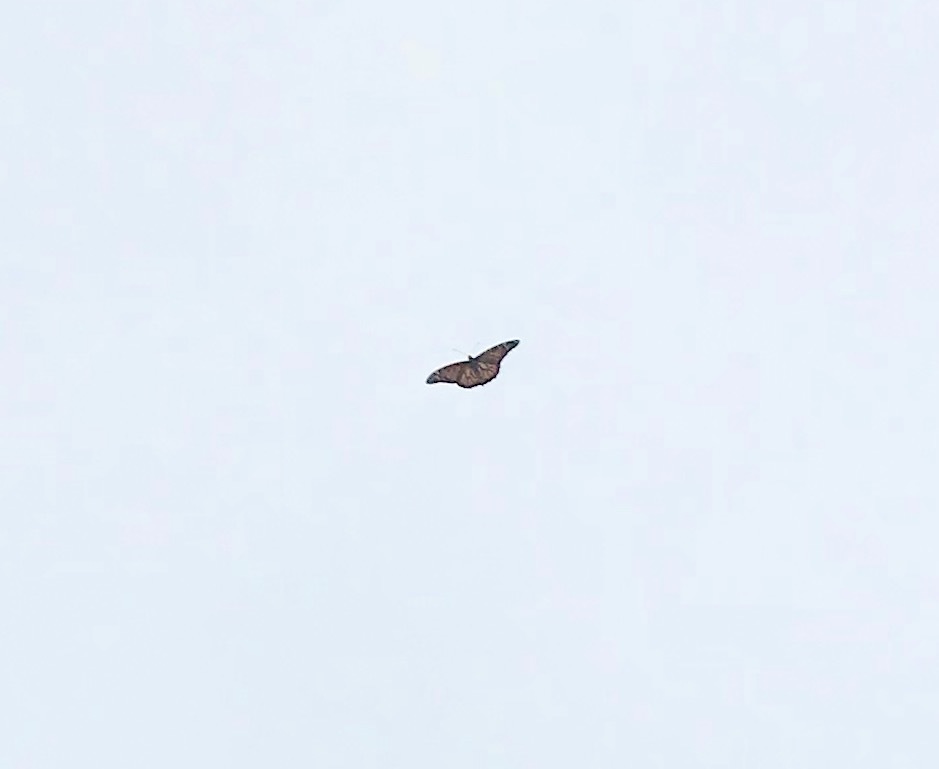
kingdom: Animalia
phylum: Arthropoda
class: Insecta
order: Lepidoptera
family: Nymphalidae
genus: Danaus
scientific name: Danaus plexippus
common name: Monarch
